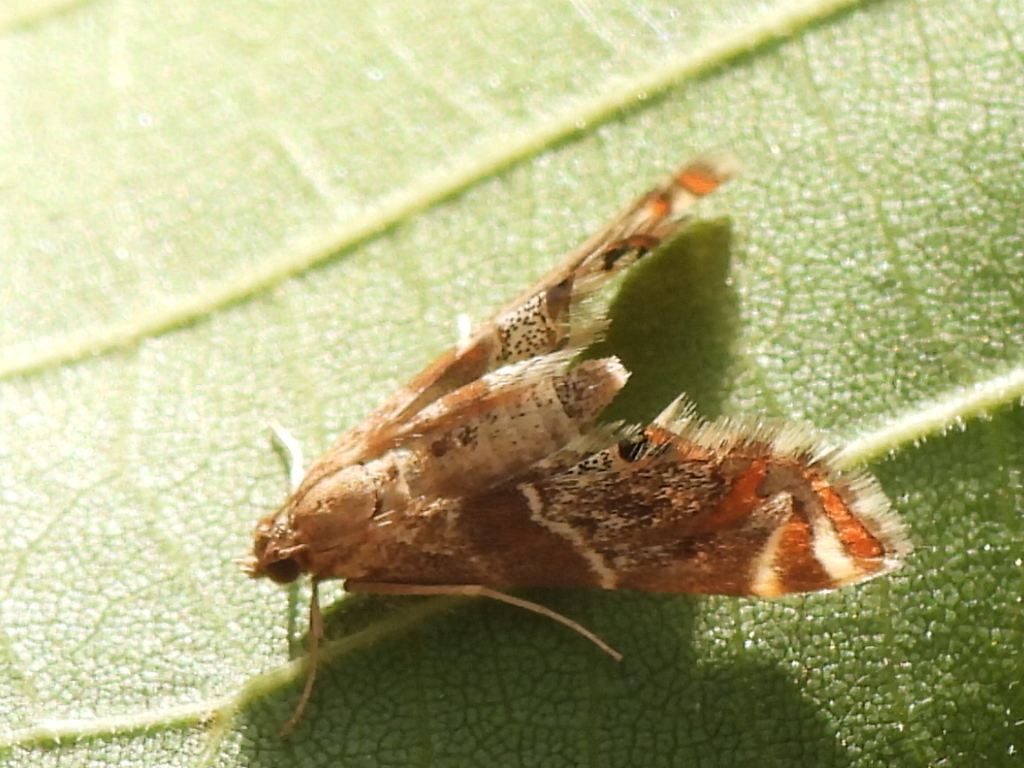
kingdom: Animalia
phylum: Arthropoda
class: Insecta
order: Lepidoptera
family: Crambidae
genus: Petrophila
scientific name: Petrophila jaliscalis
